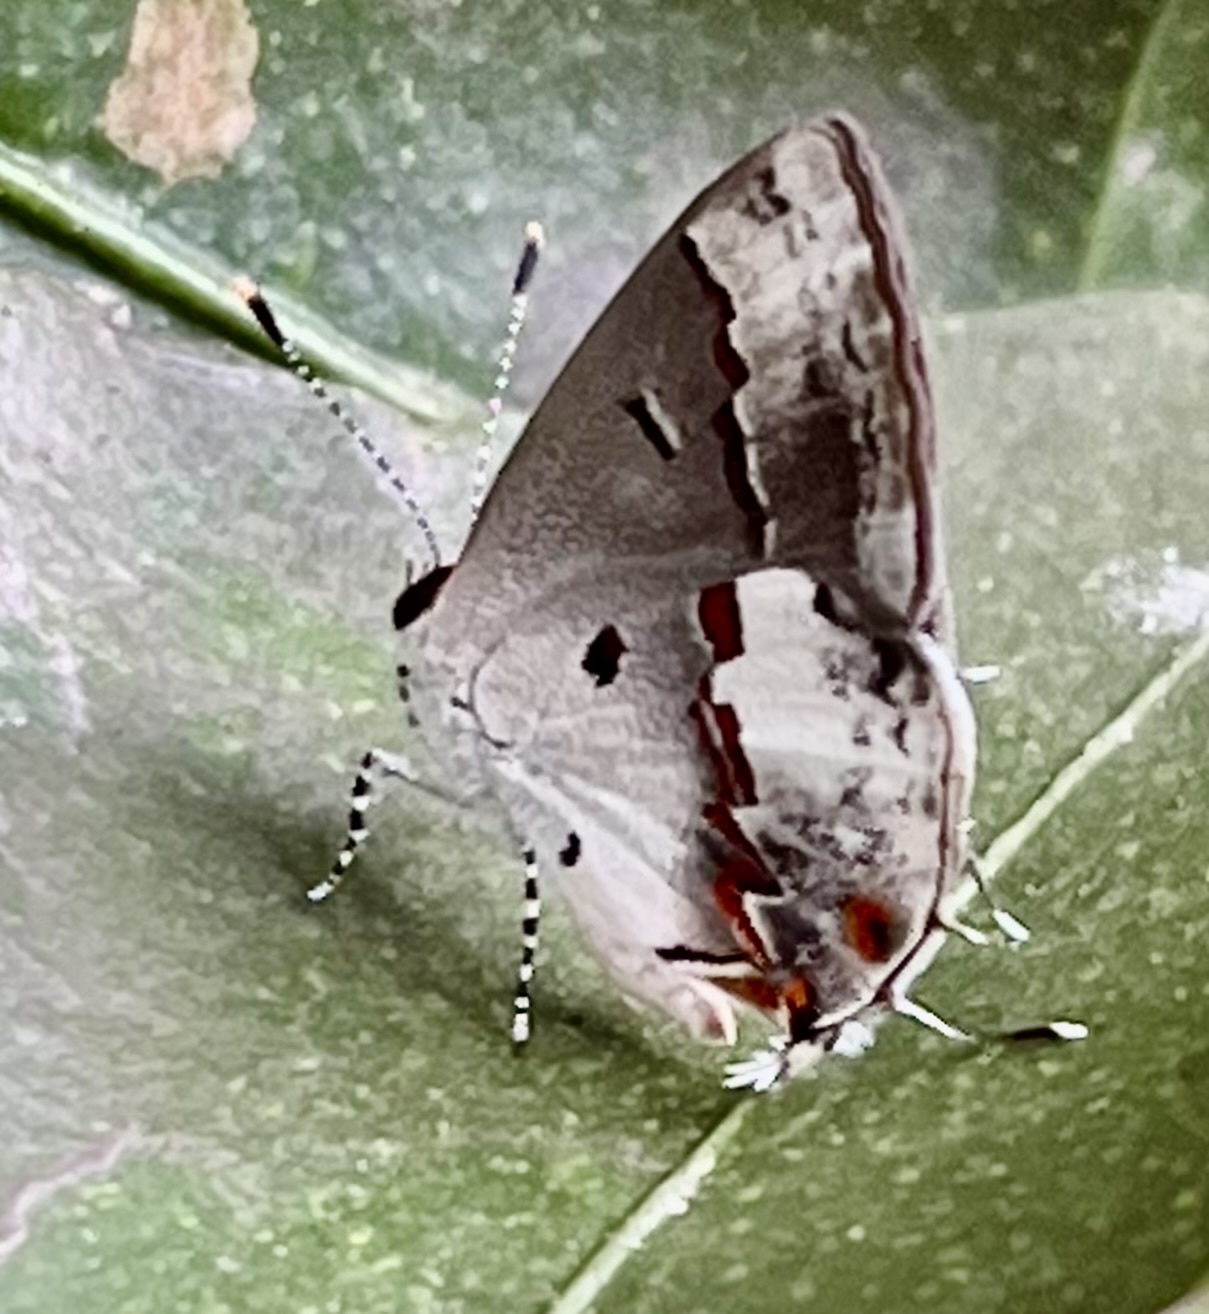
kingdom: Animalia
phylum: Arthropoda
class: Insecta
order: Lepidoptera
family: Lycaenidae
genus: Thecla
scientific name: Thecla zilda
